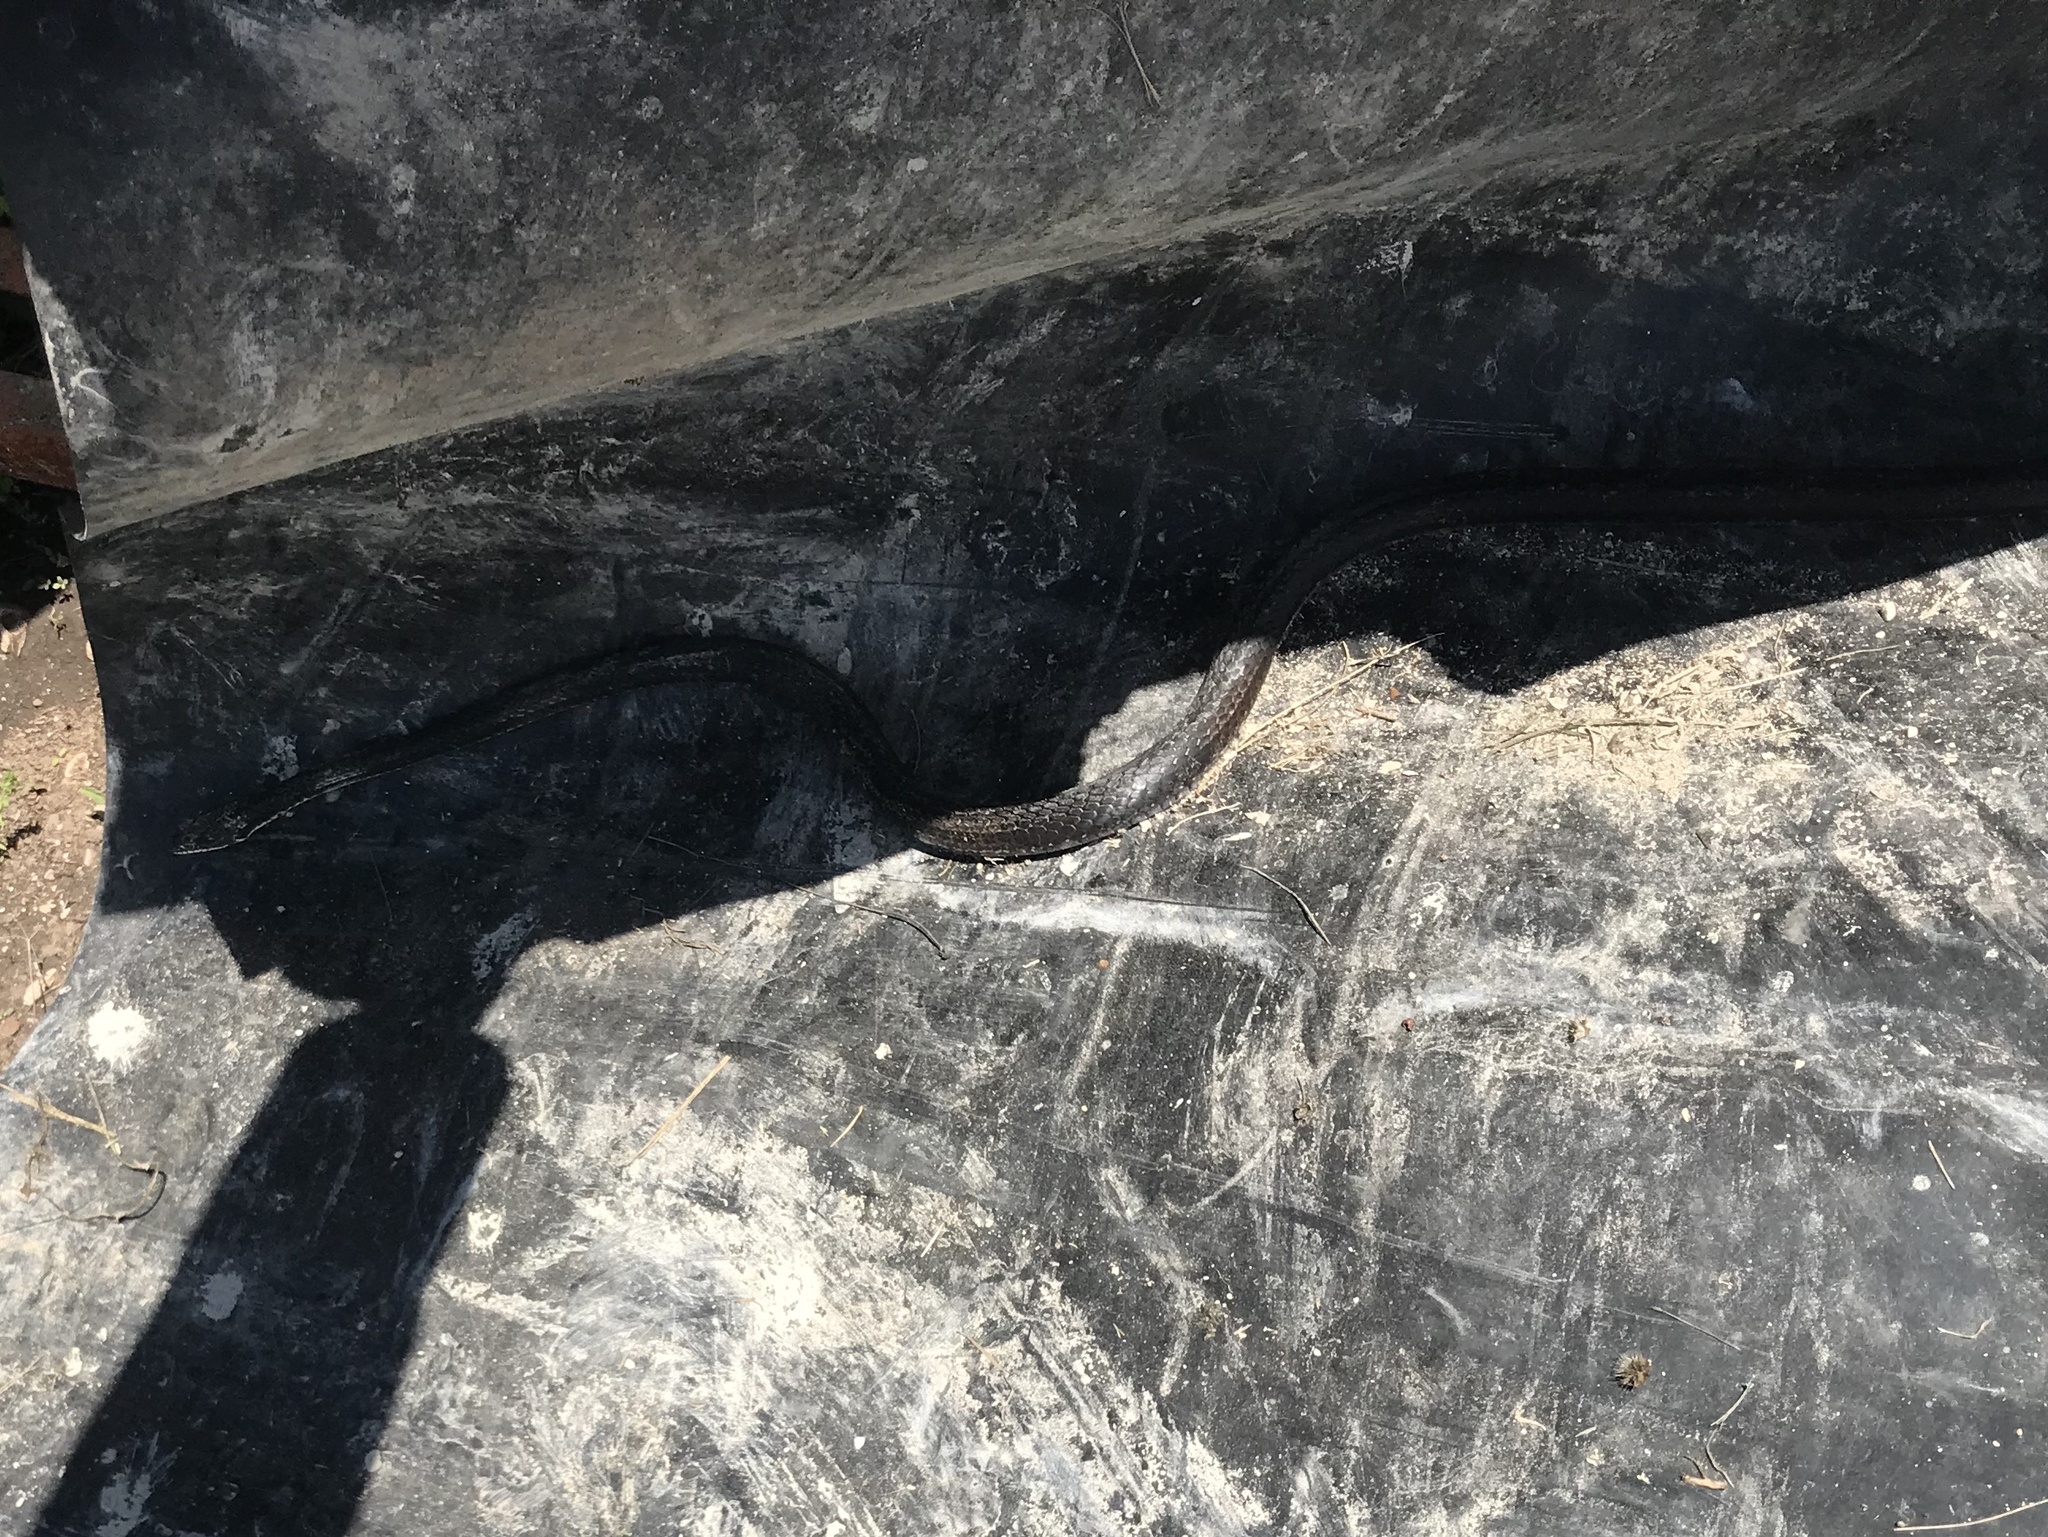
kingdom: Animalia
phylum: Chordata
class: Squamata
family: Colubridae
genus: Masticophis
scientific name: Masticophis taeniatus
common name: Striped whipsnake
